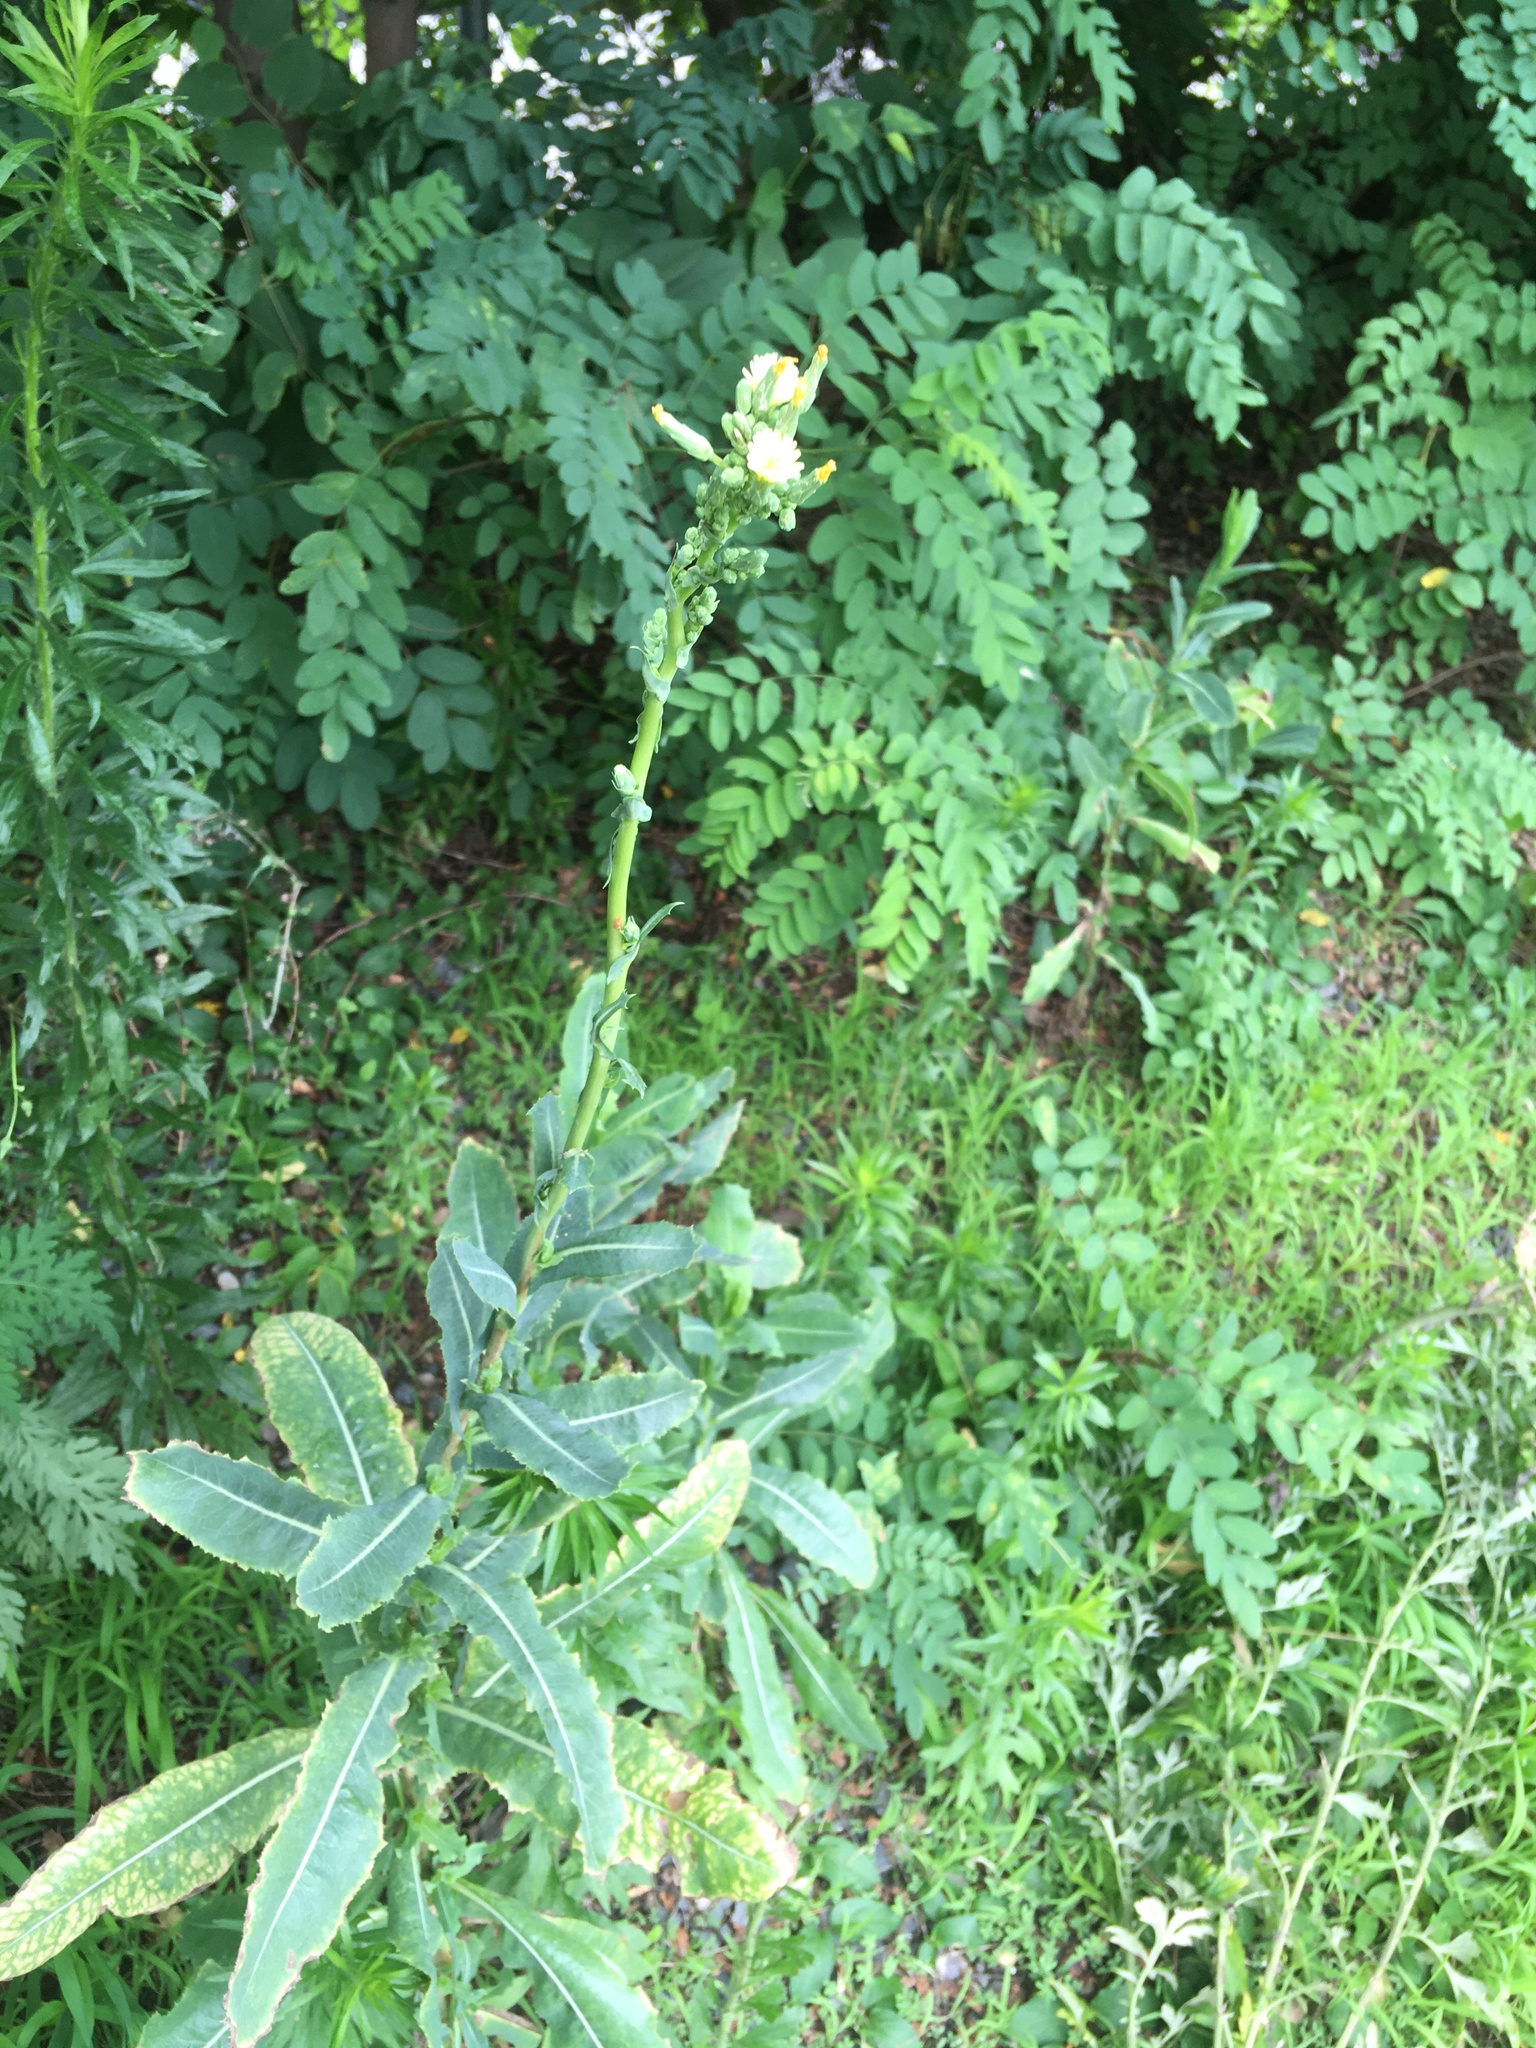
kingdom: Plantae
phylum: Tracheophyta
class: Magnoliopsida
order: Asterales
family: Asteraceae
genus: Lactuca
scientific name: Lactuca serriola
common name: Prickly lettuce
